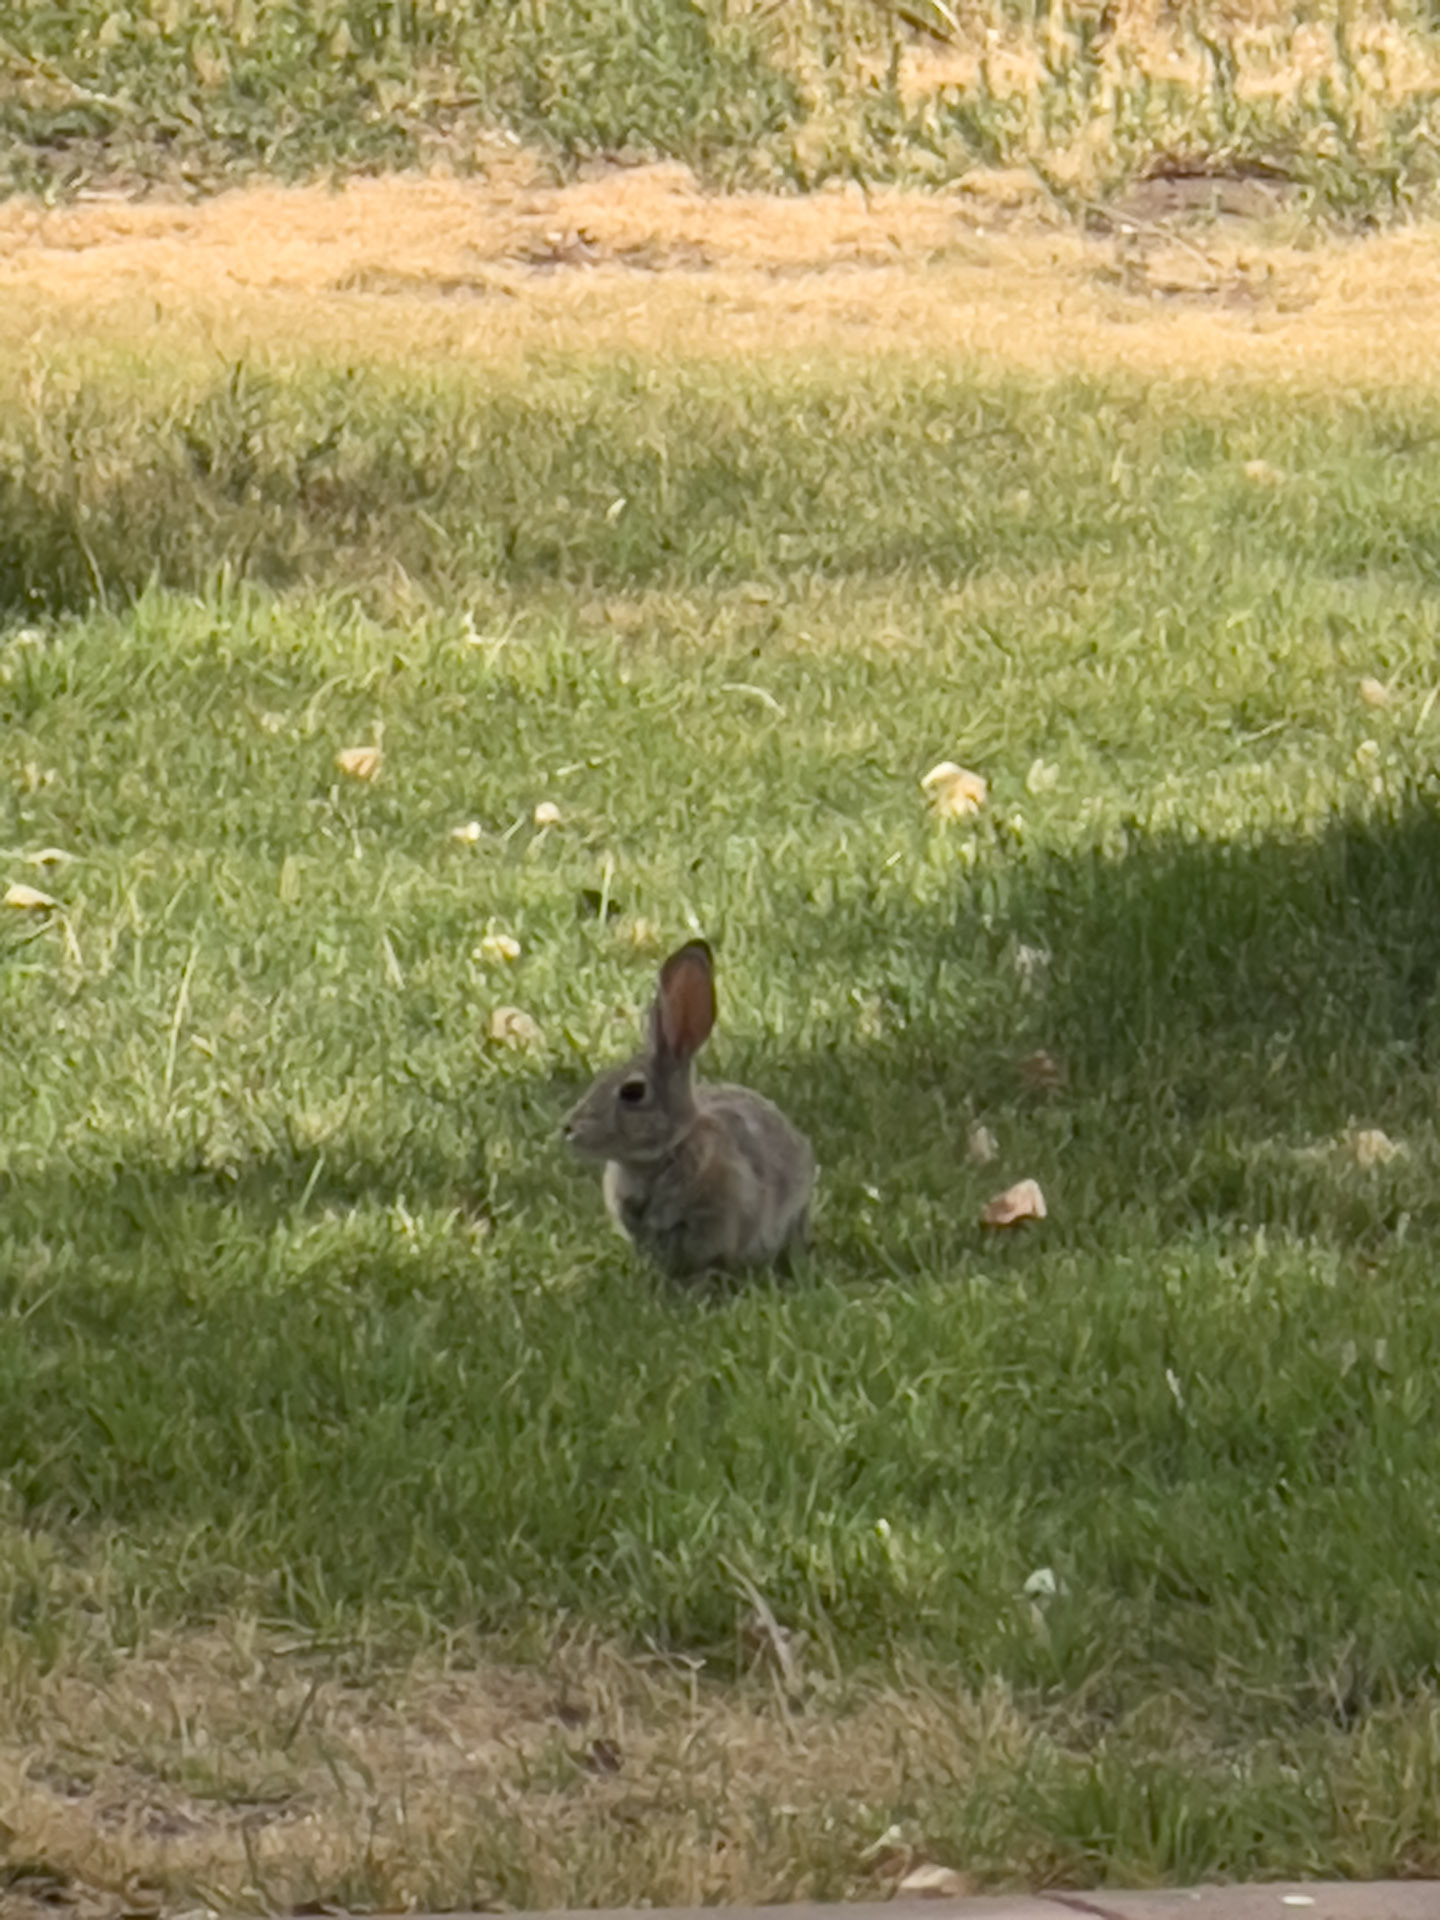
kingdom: Animalia
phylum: Chordata
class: Mammalia
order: Lagomorpha
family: Leporidae
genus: Sylvilagus
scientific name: Sylvilagus audubonii
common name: Desert cottontail
